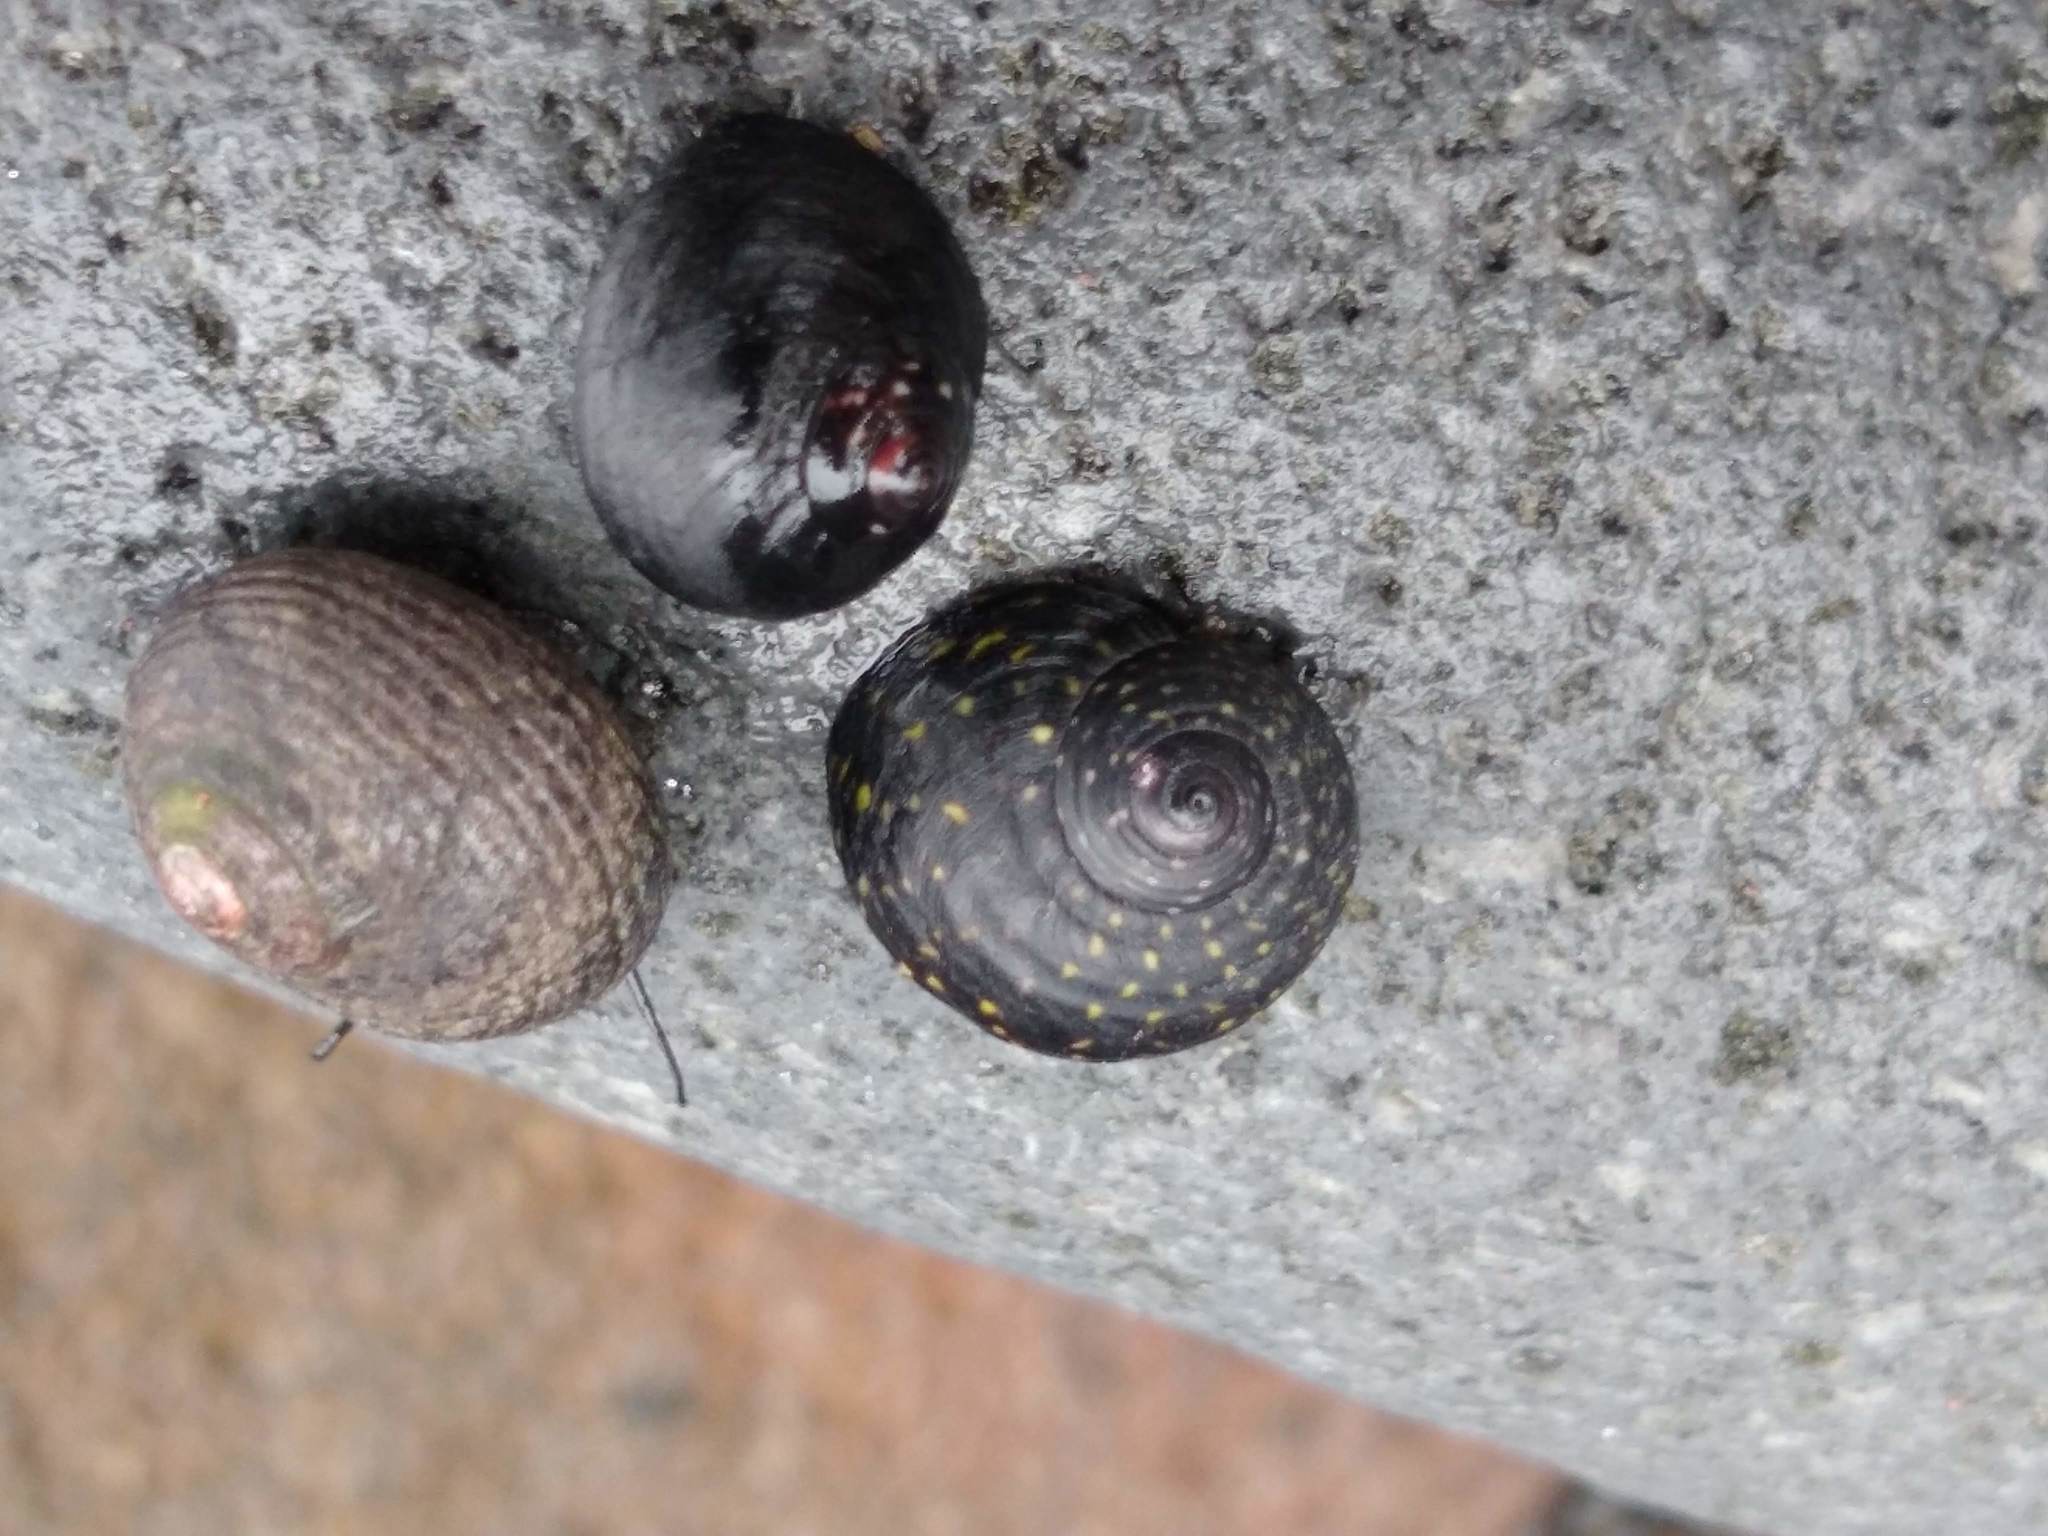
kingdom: Animalia
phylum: Mollusca
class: Gastropoda
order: Trochida
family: Trochidae
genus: Diloma
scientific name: Diloma aridum
